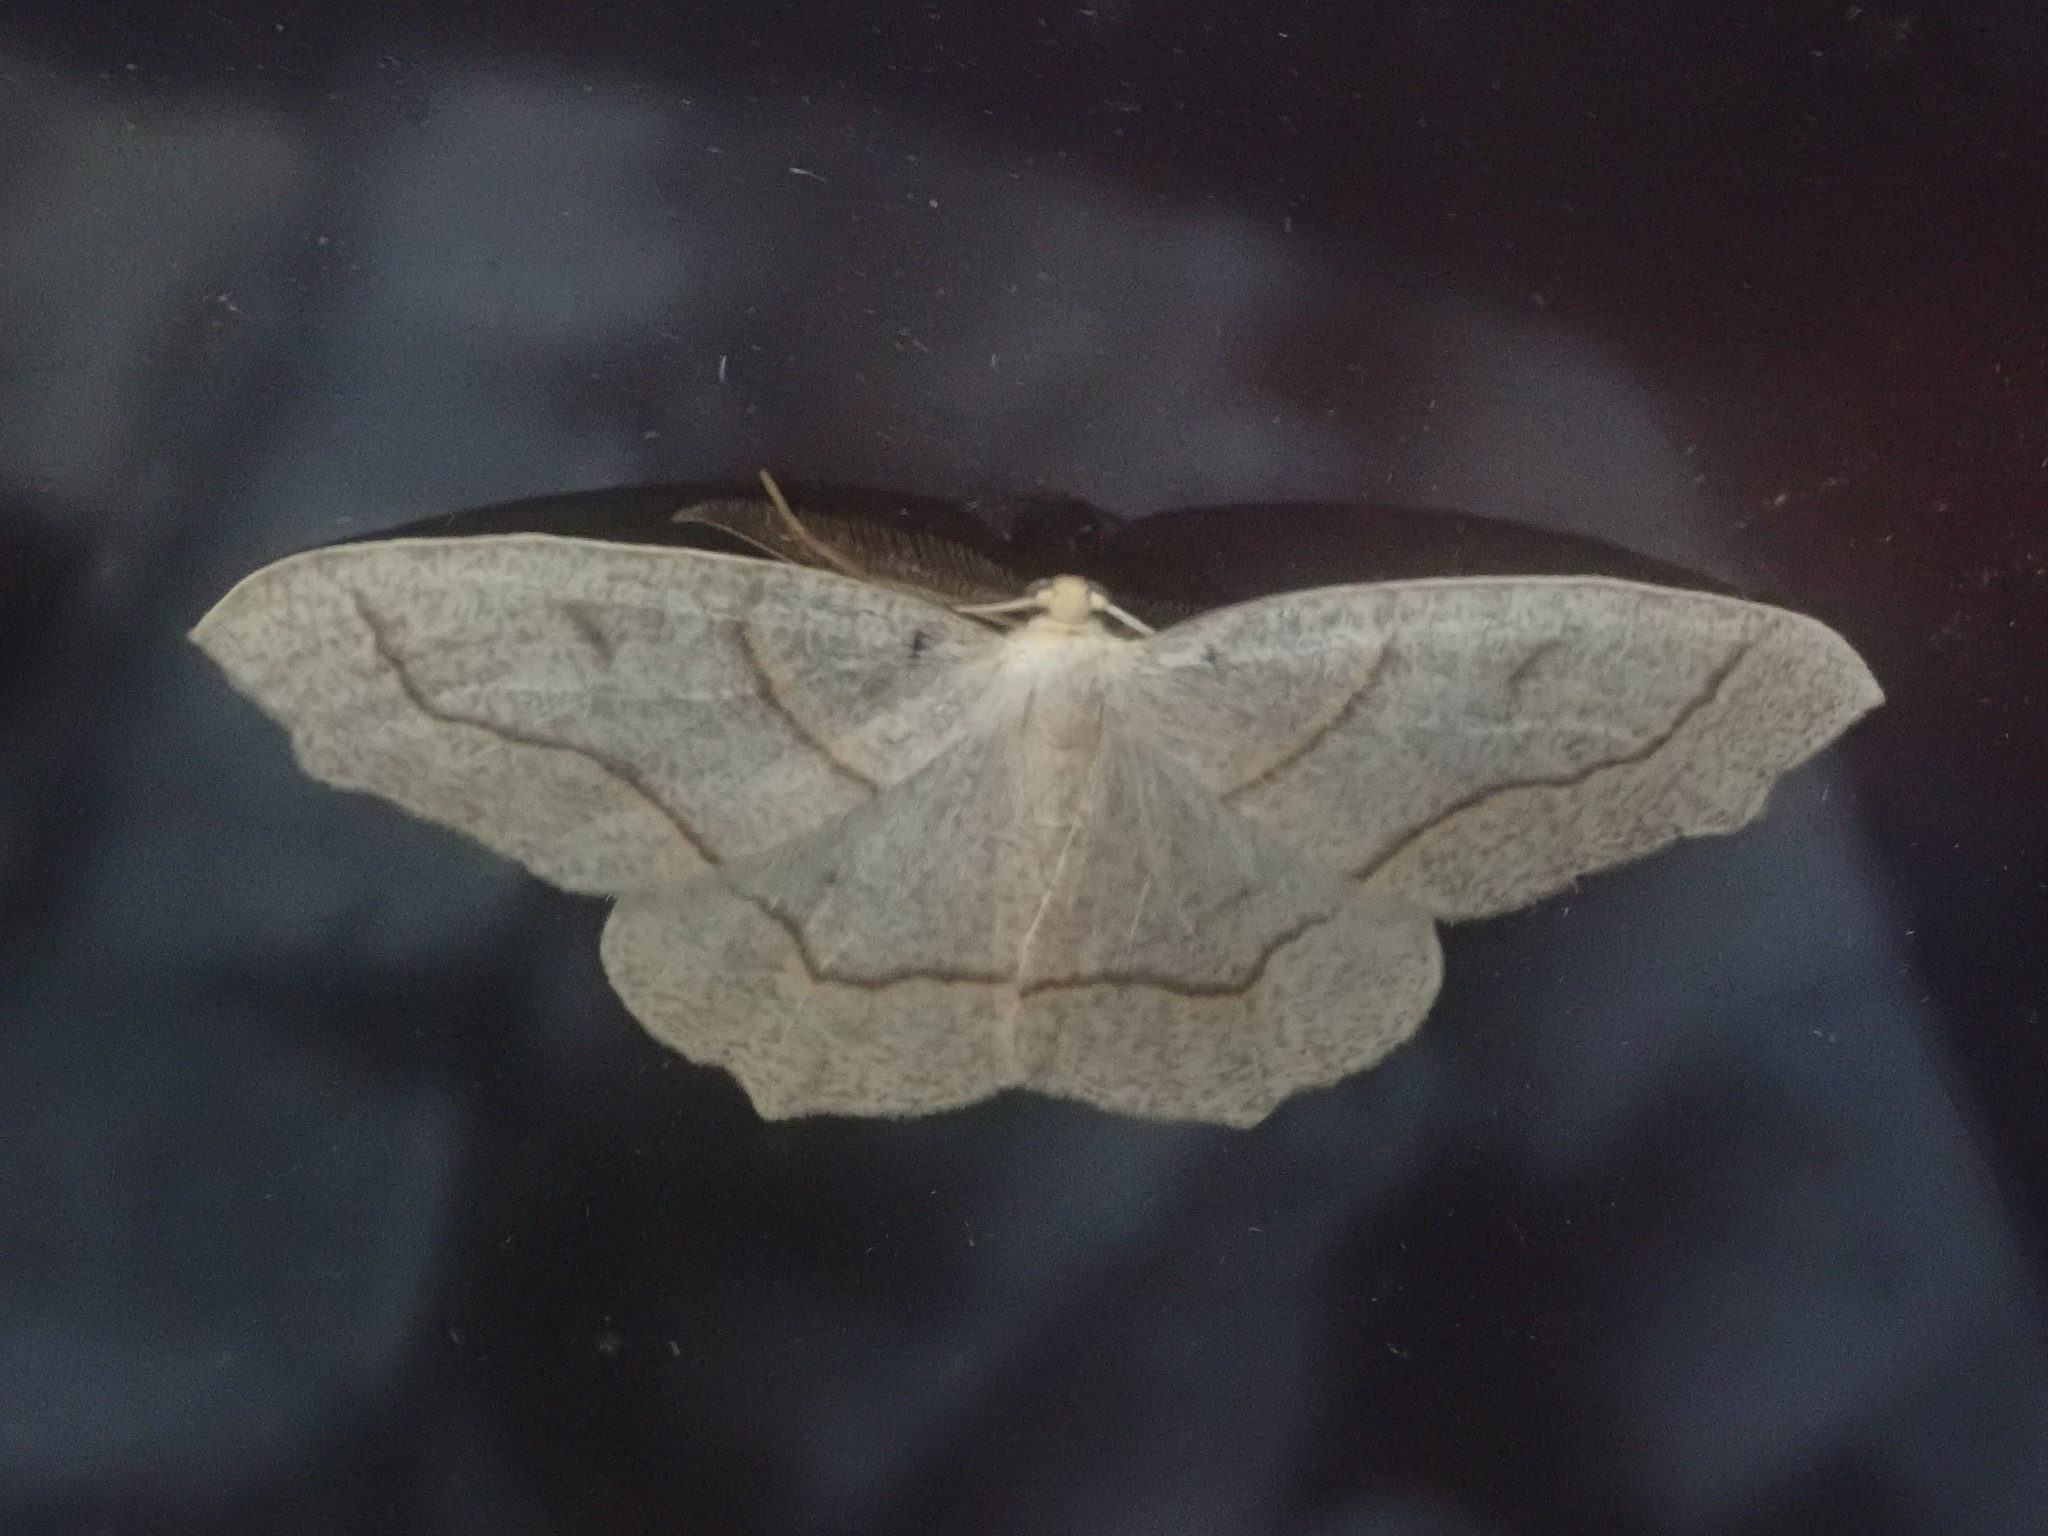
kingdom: Animalia
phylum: Arthropoda
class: Insecta
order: Lepidoptera
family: Geometridae
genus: Lambdina
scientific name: Lambdina fiscellaria
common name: Hemlock looper
